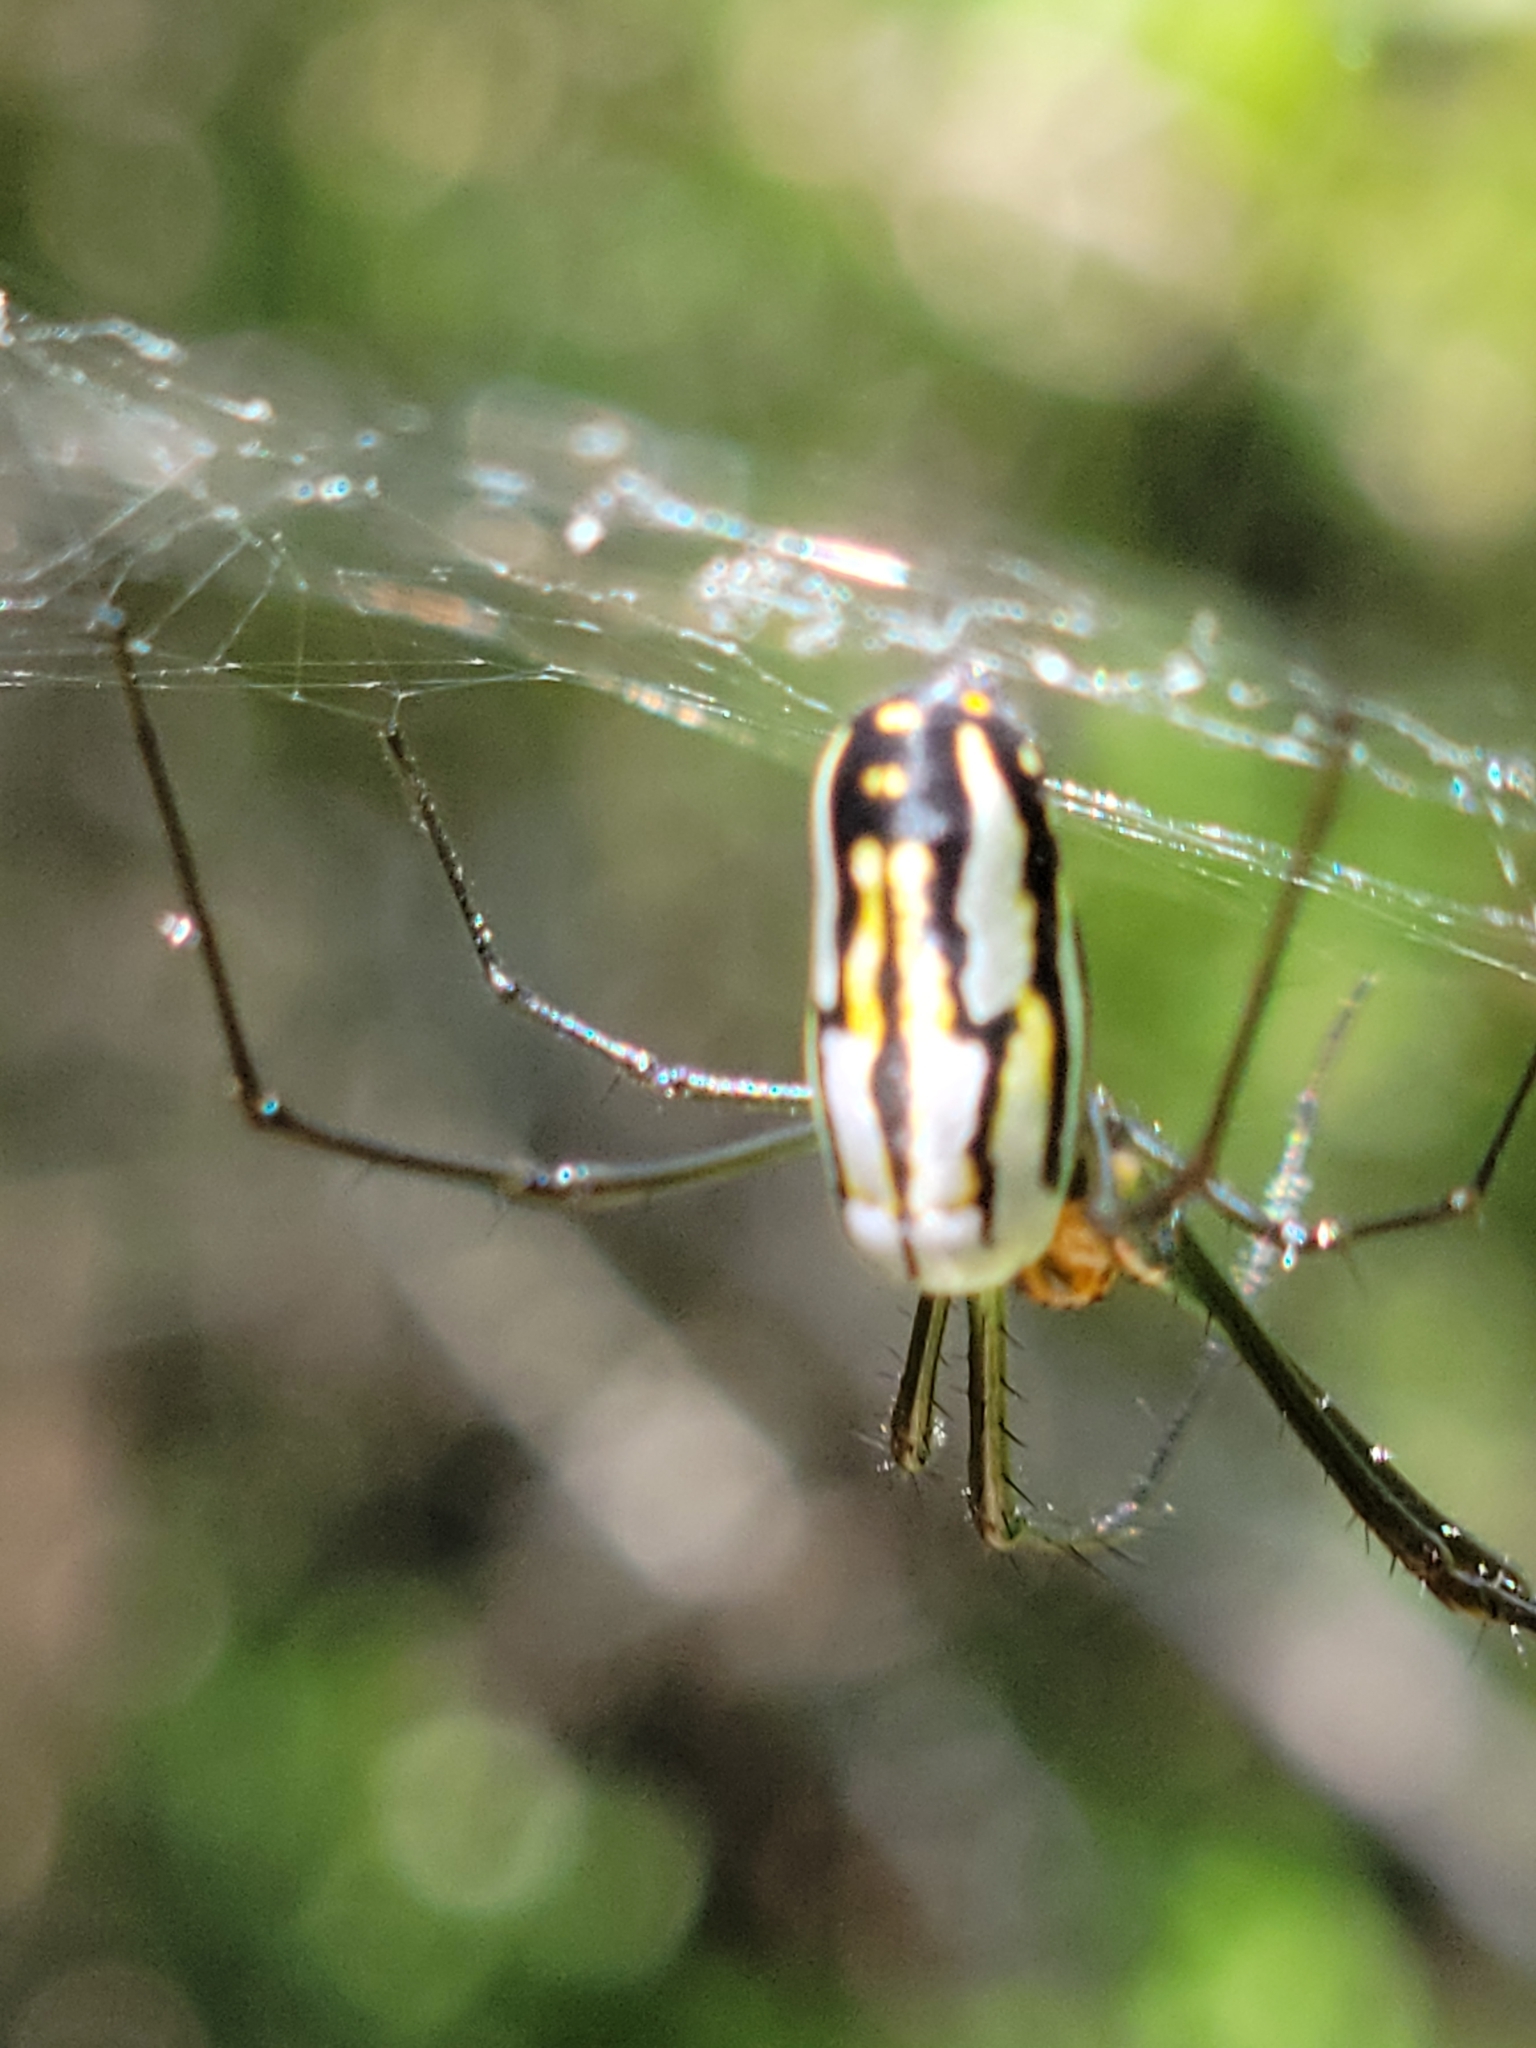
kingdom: Animalia
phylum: Arthropoda
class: Arachnida
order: Araneae
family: Tetragnathidae
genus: Leucauge
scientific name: Leucauge argyra
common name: Longjawed orb weavers
